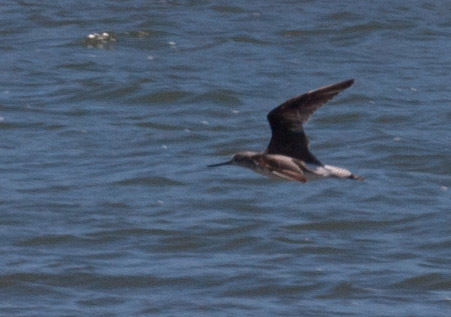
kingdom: Animalia
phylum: Chordata
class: Aves
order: Charadriiformes
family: Scolopacidae
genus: Tringa
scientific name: Tringa nebularia
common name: Common greenshank
